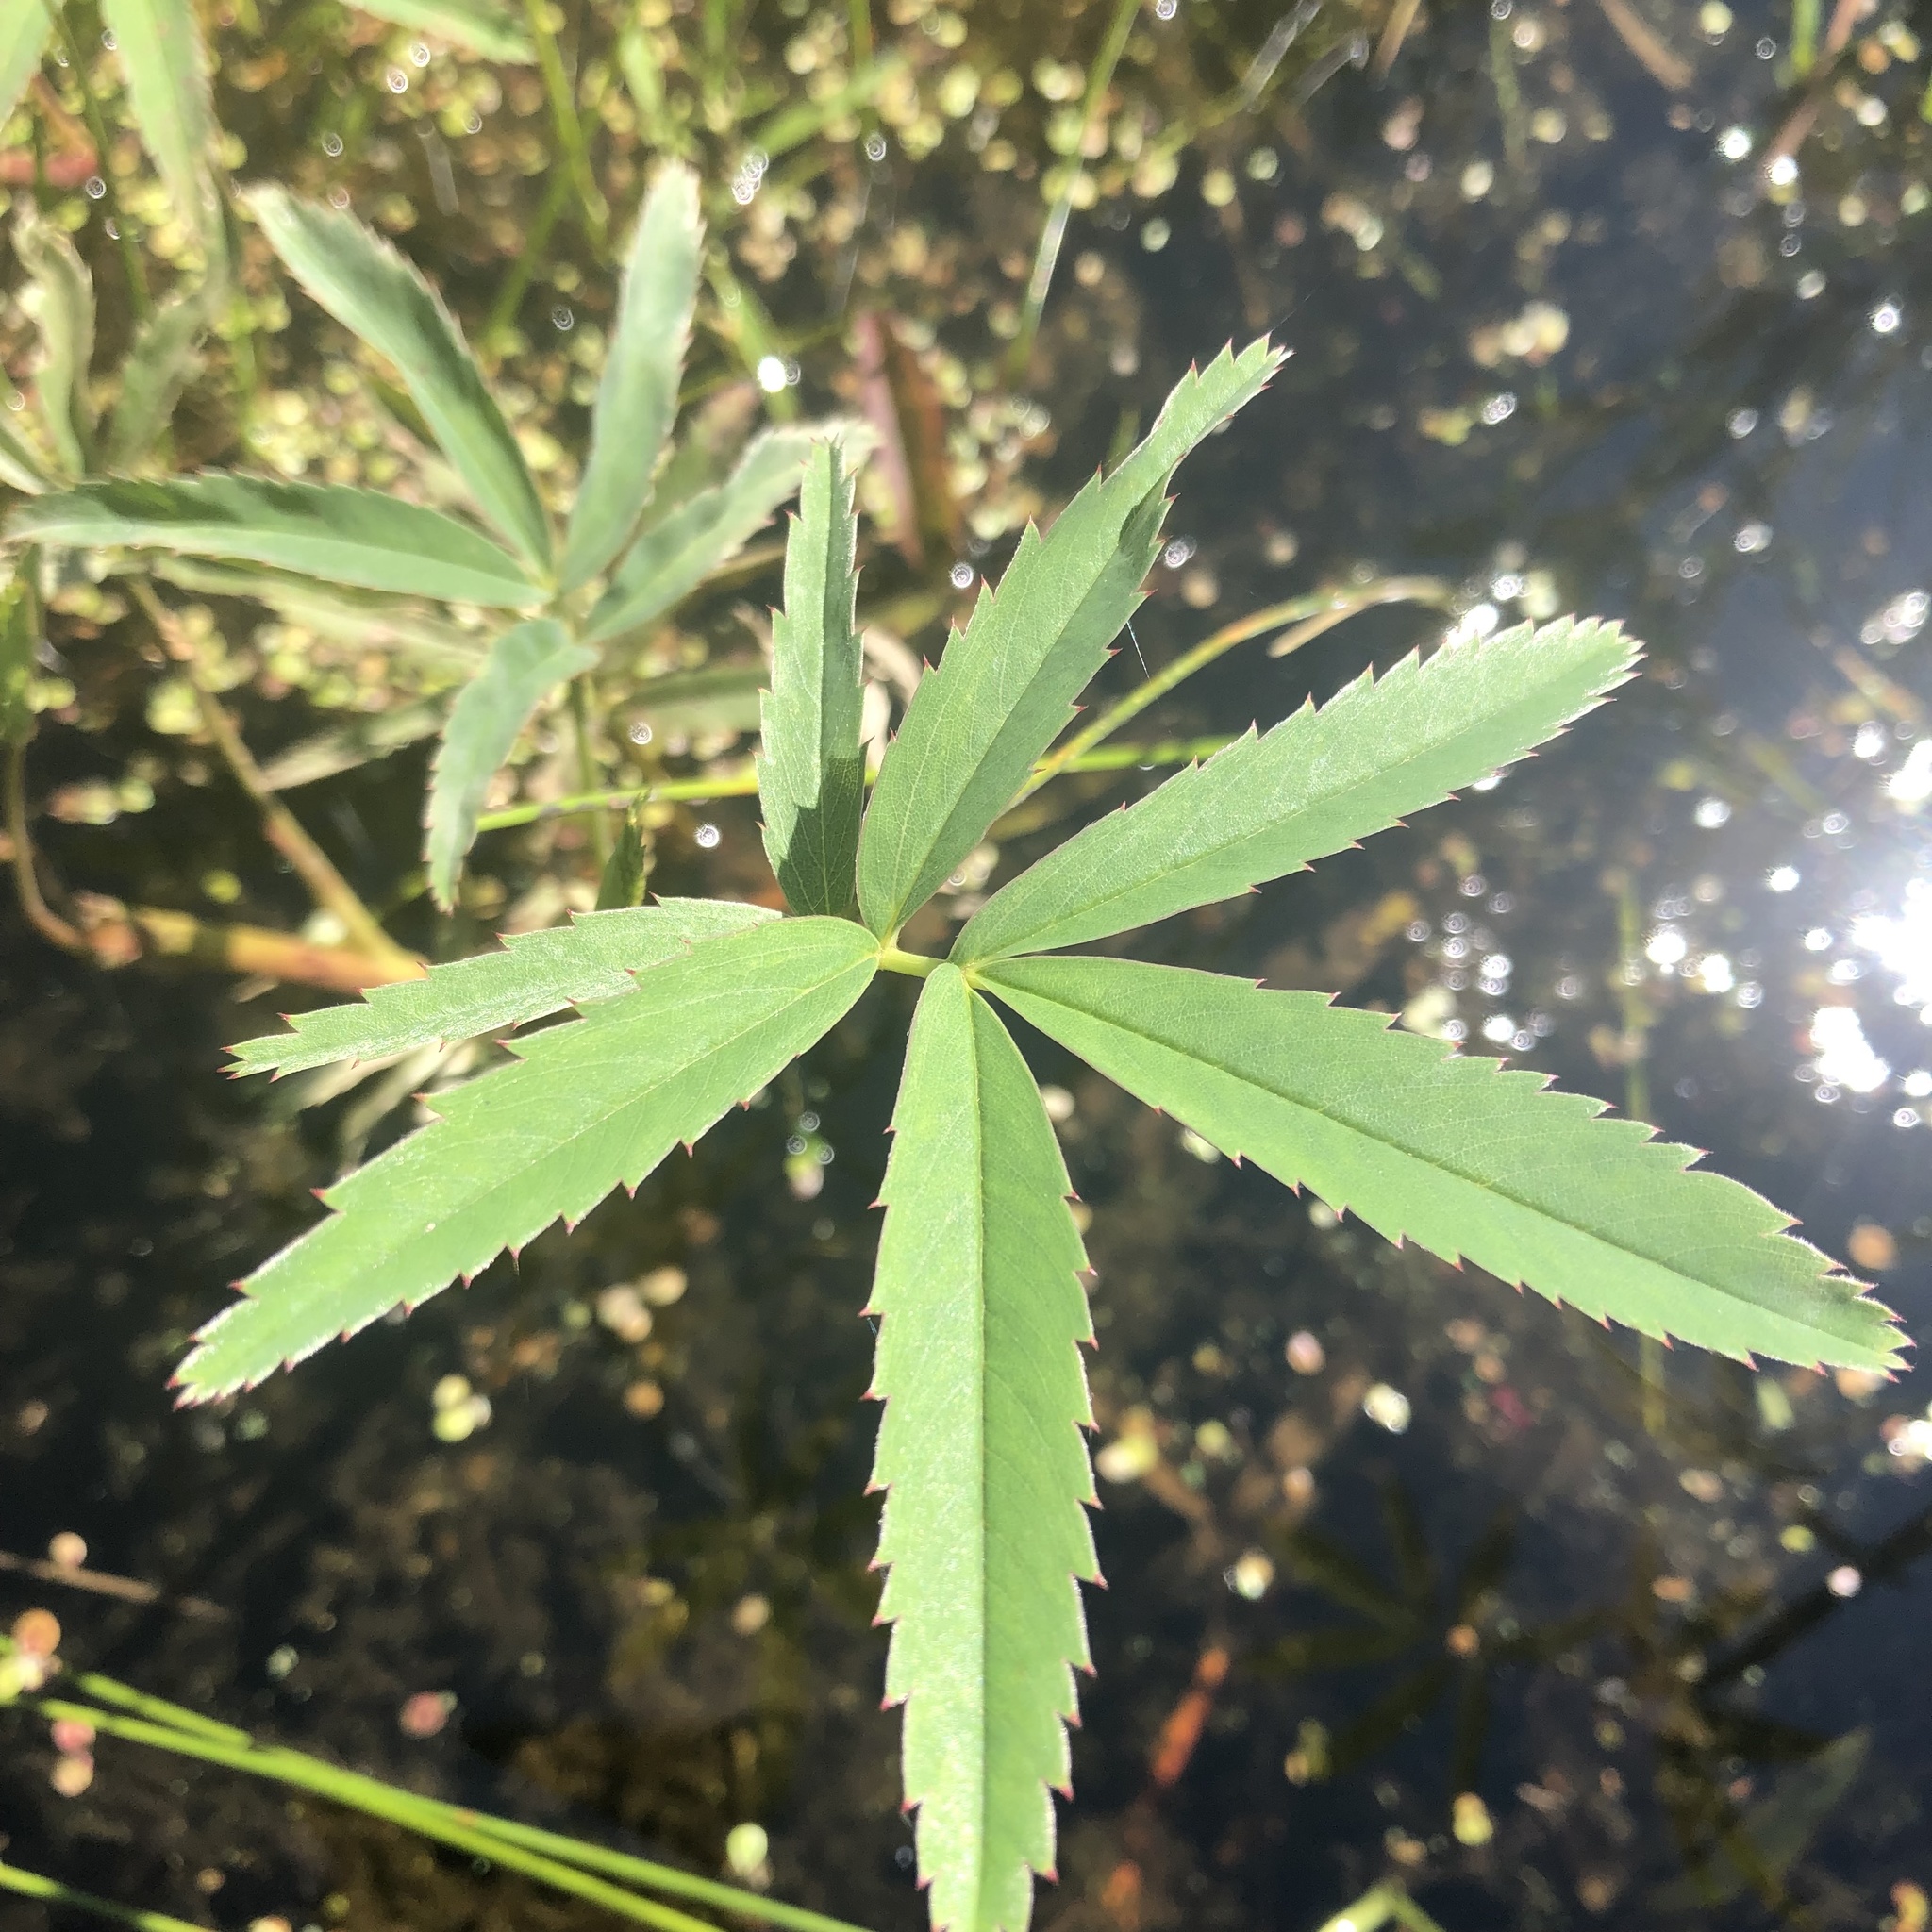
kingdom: Plantae
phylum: Tracheophyta
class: Magnoliopsida
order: Rosales
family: Rosaceae
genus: Comarum
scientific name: Comarum palustre
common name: Marsh cinquefoil
